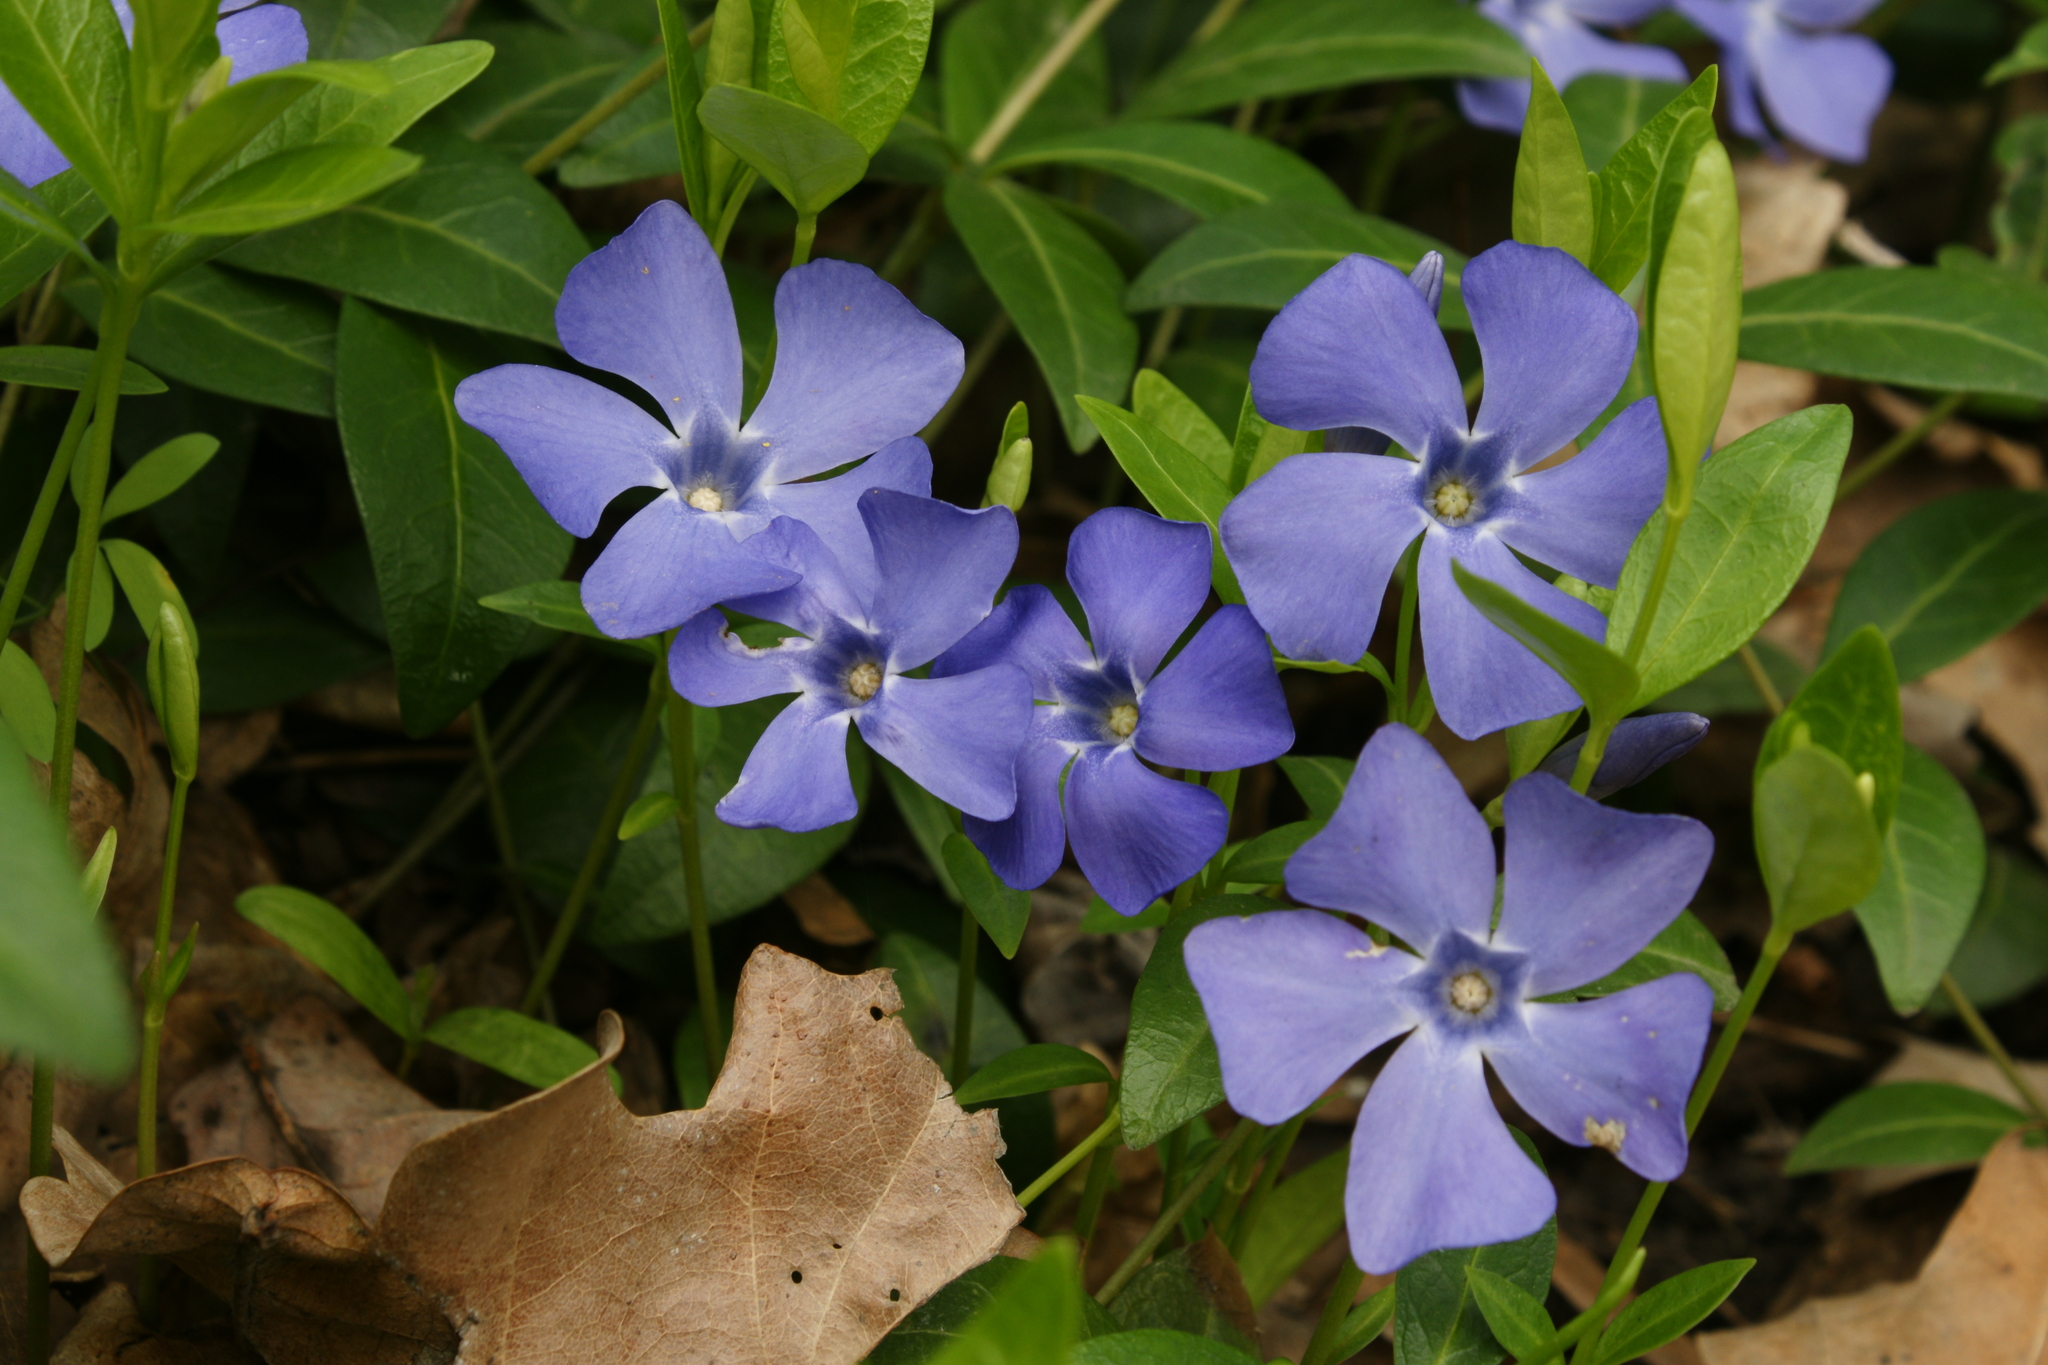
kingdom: Plantae
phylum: Tracheophyta
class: Magnoliopsida
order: Gentianales
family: Apocynaceae
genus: Vinca
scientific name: Vinca minor
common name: Lesser periwinkle
